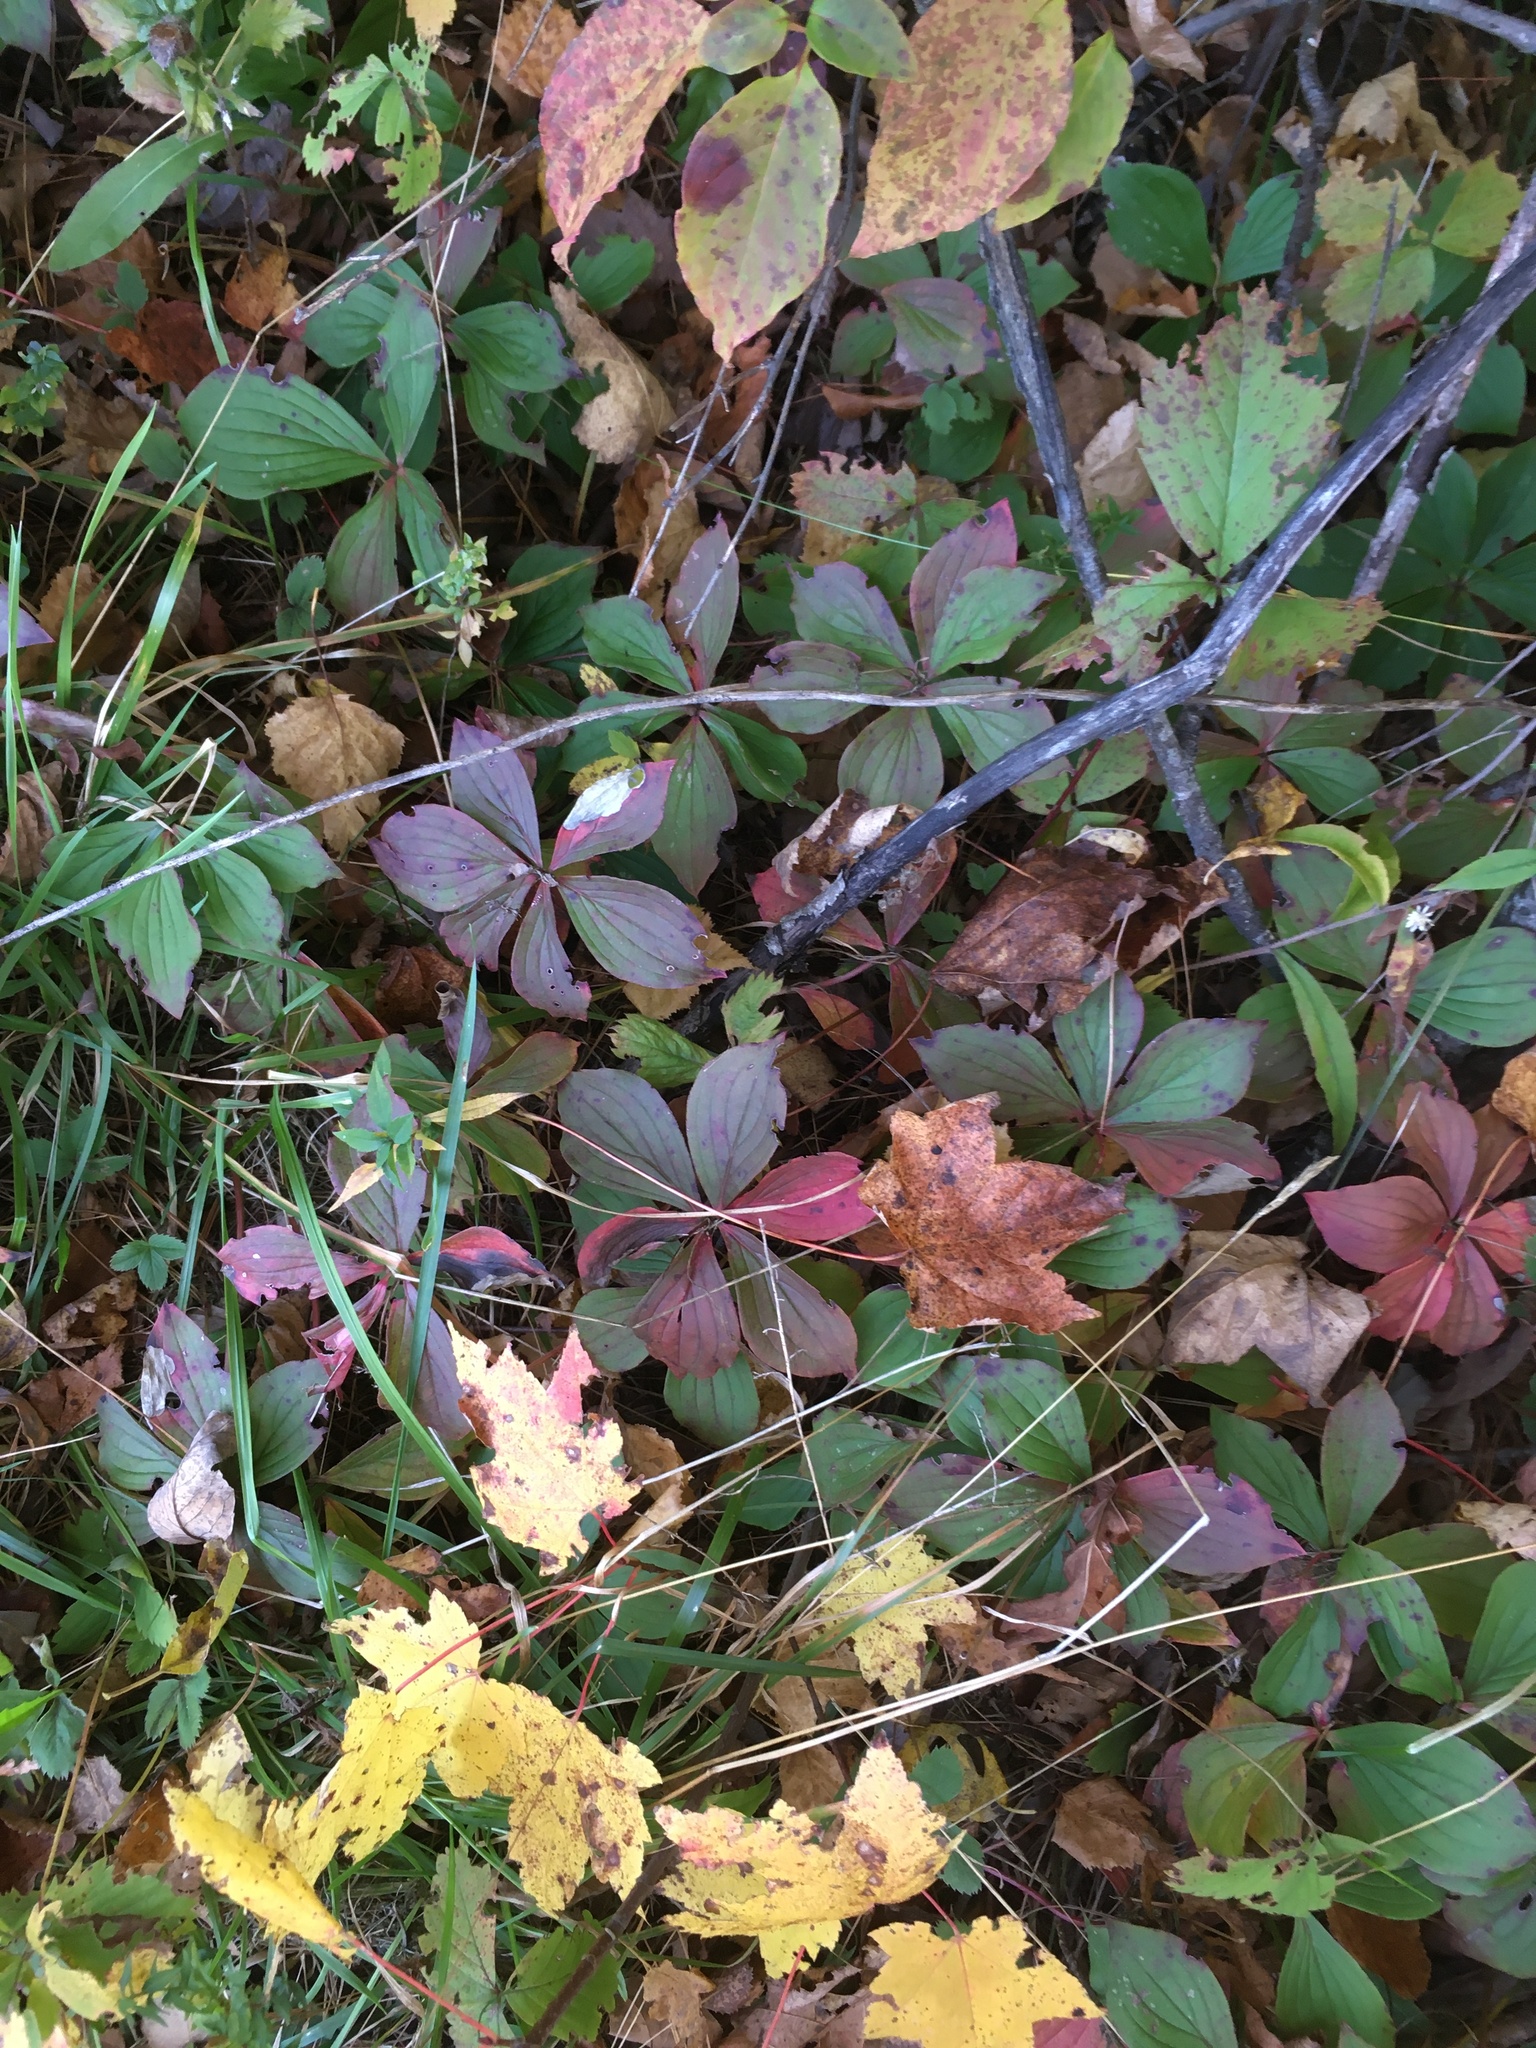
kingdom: Plantae
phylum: Tracheophyta
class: Magnoliopsida
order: Cornales
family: Cornaceae
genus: Cornus
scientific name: Cornus canadensis
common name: Creeping dogwood
